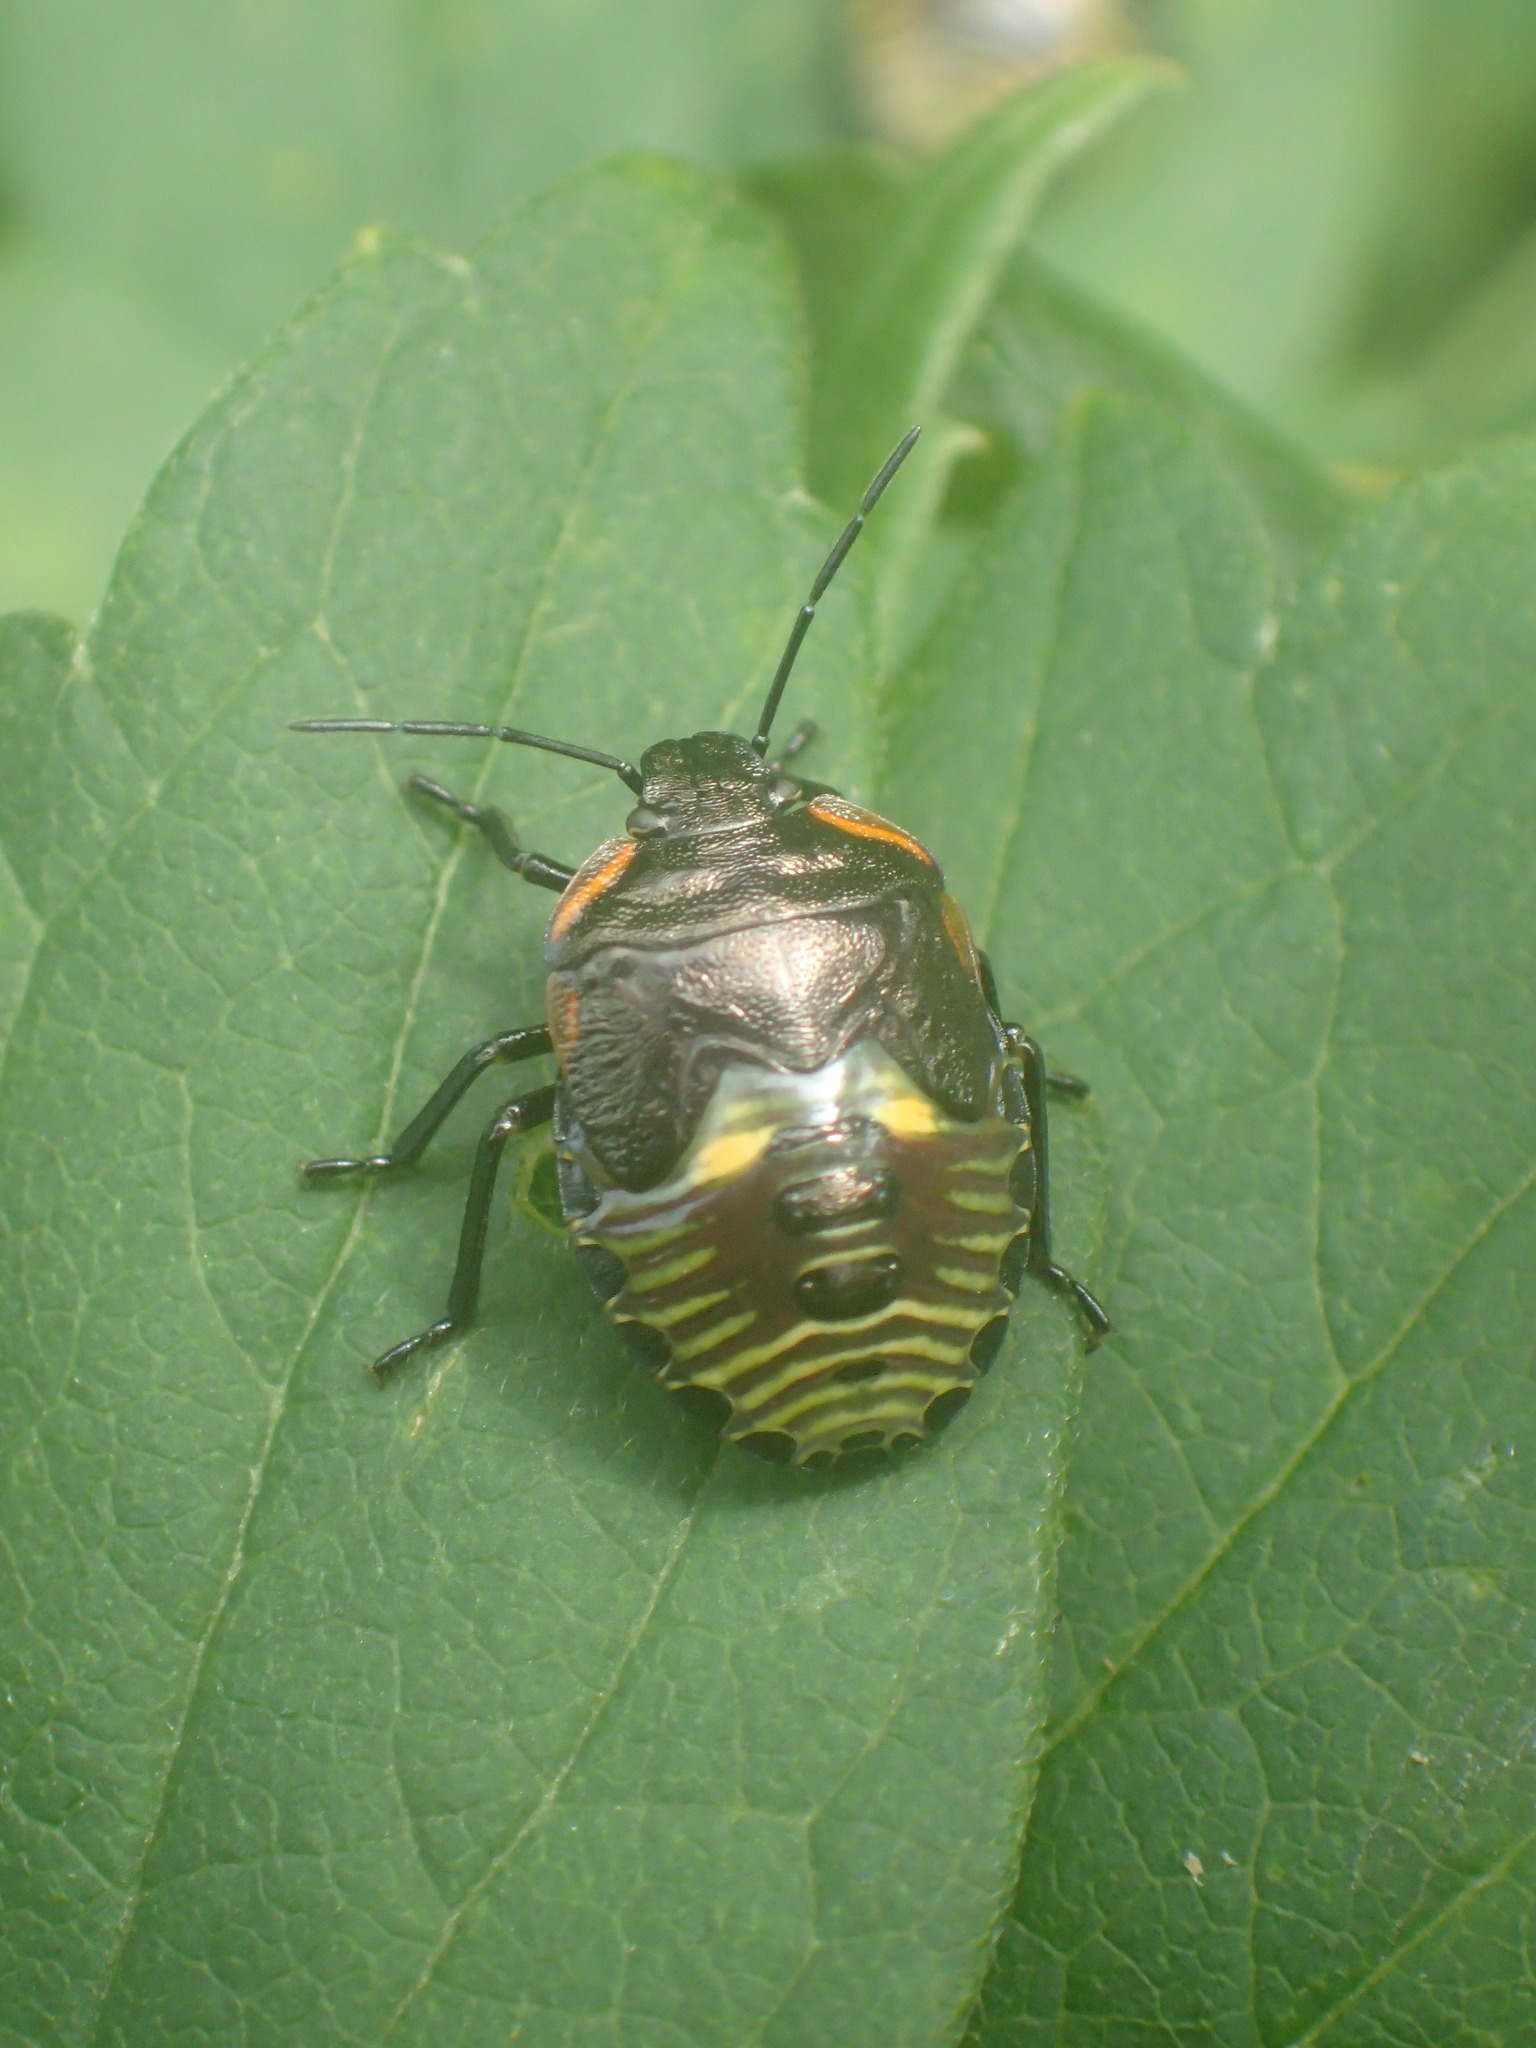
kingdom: Animalia
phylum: Arthropoda
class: Insecta
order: Hemiptera
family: Pentatomidae
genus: Chinavia
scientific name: Chinavia hilaris
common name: Green stink bug
